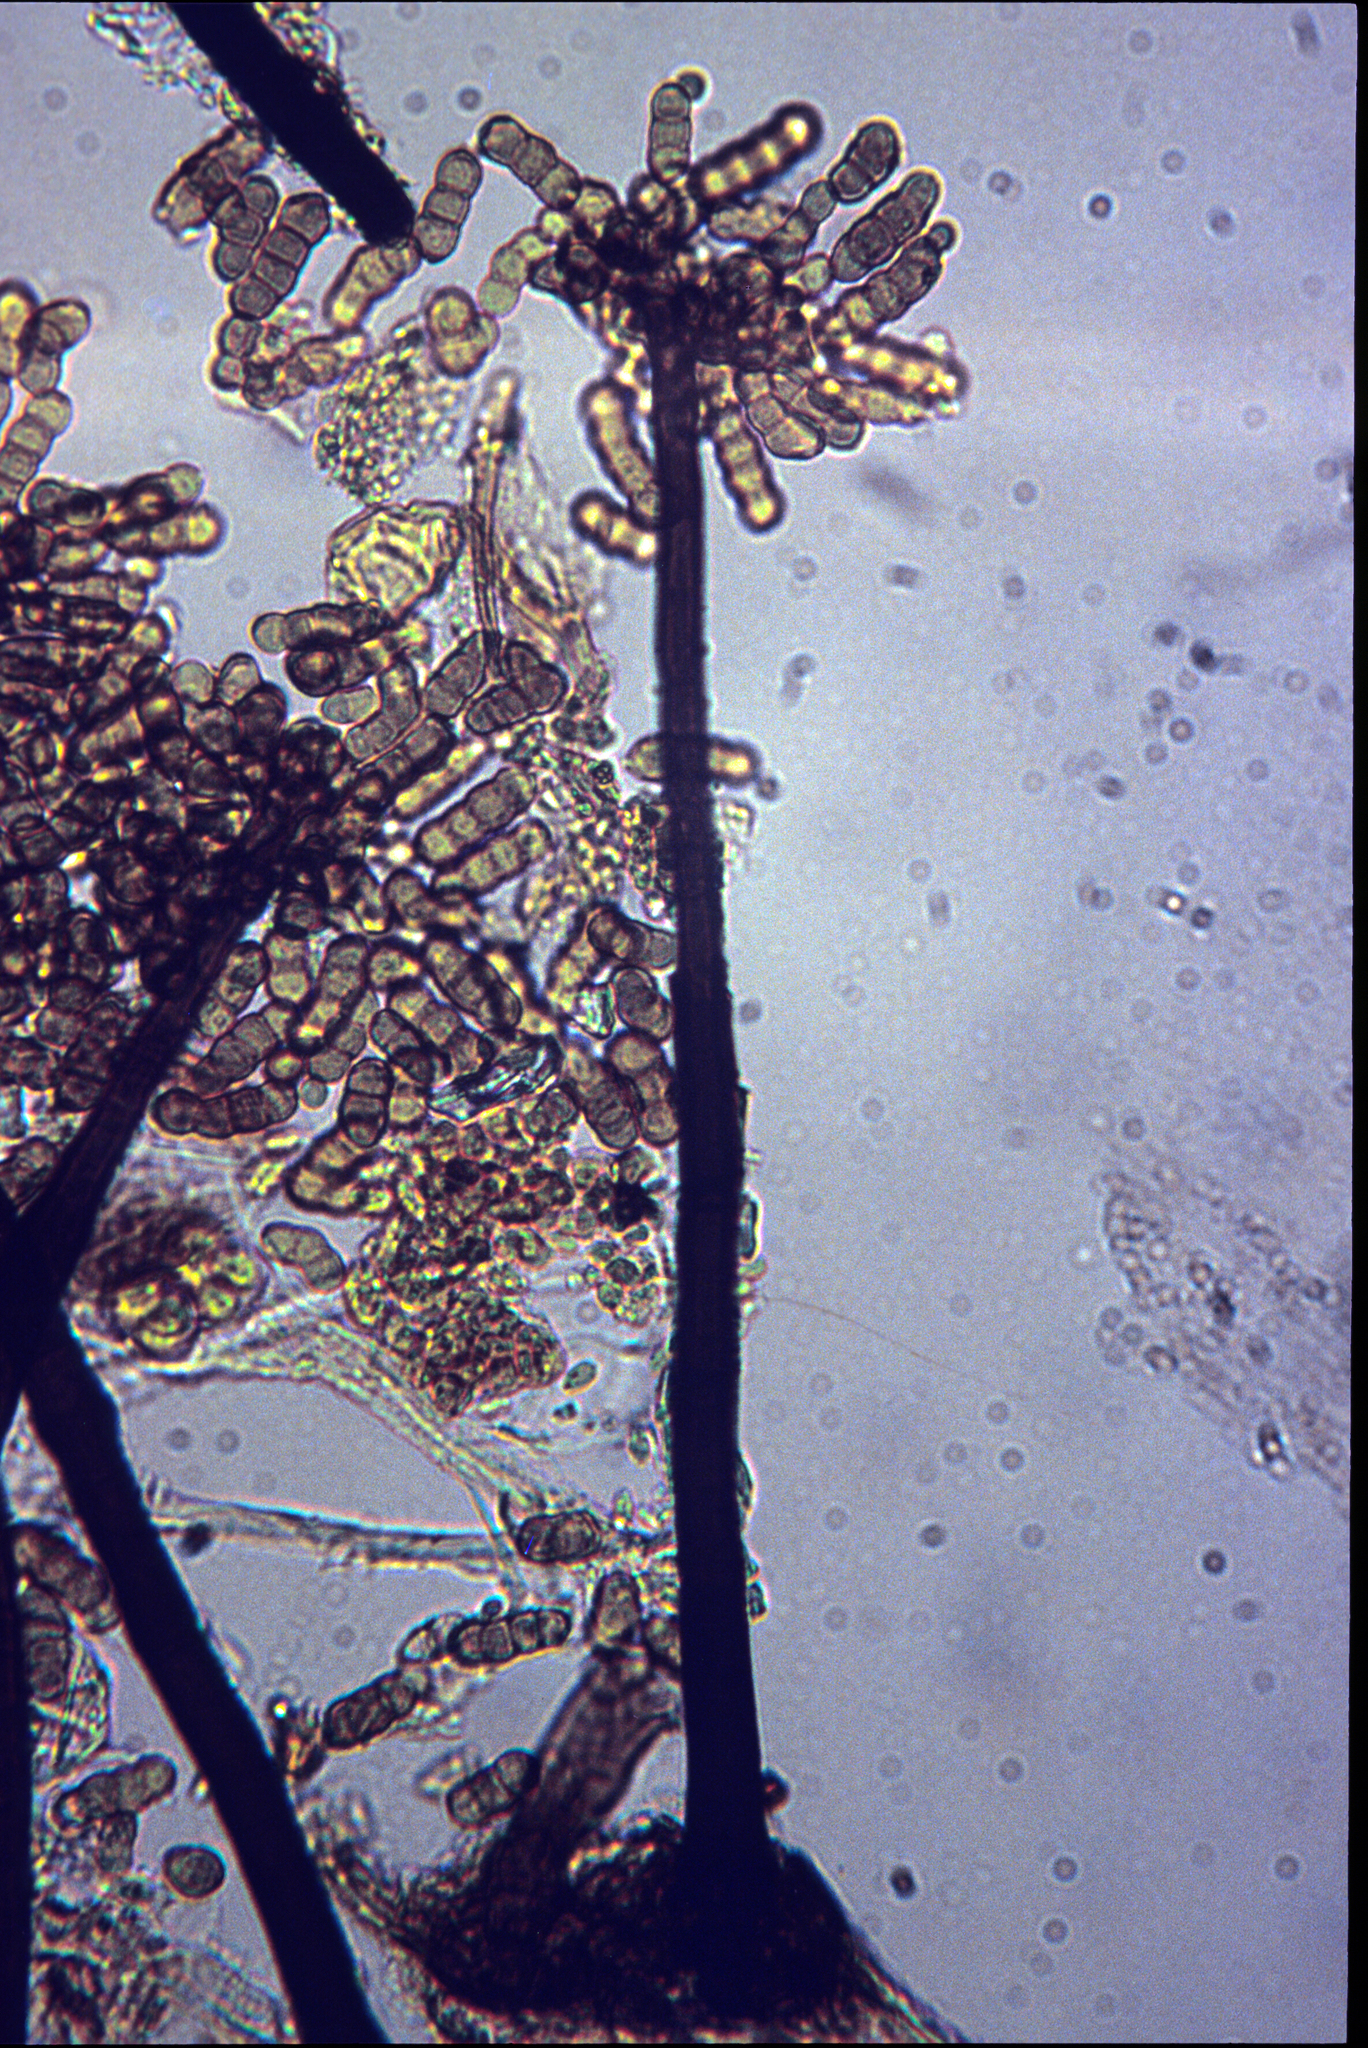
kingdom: Fungi
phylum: Ascomycota
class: Dothideomycetes
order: Pleosporales
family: Torulaceae
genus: Dendryphion
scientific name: Dendryphion comosum
